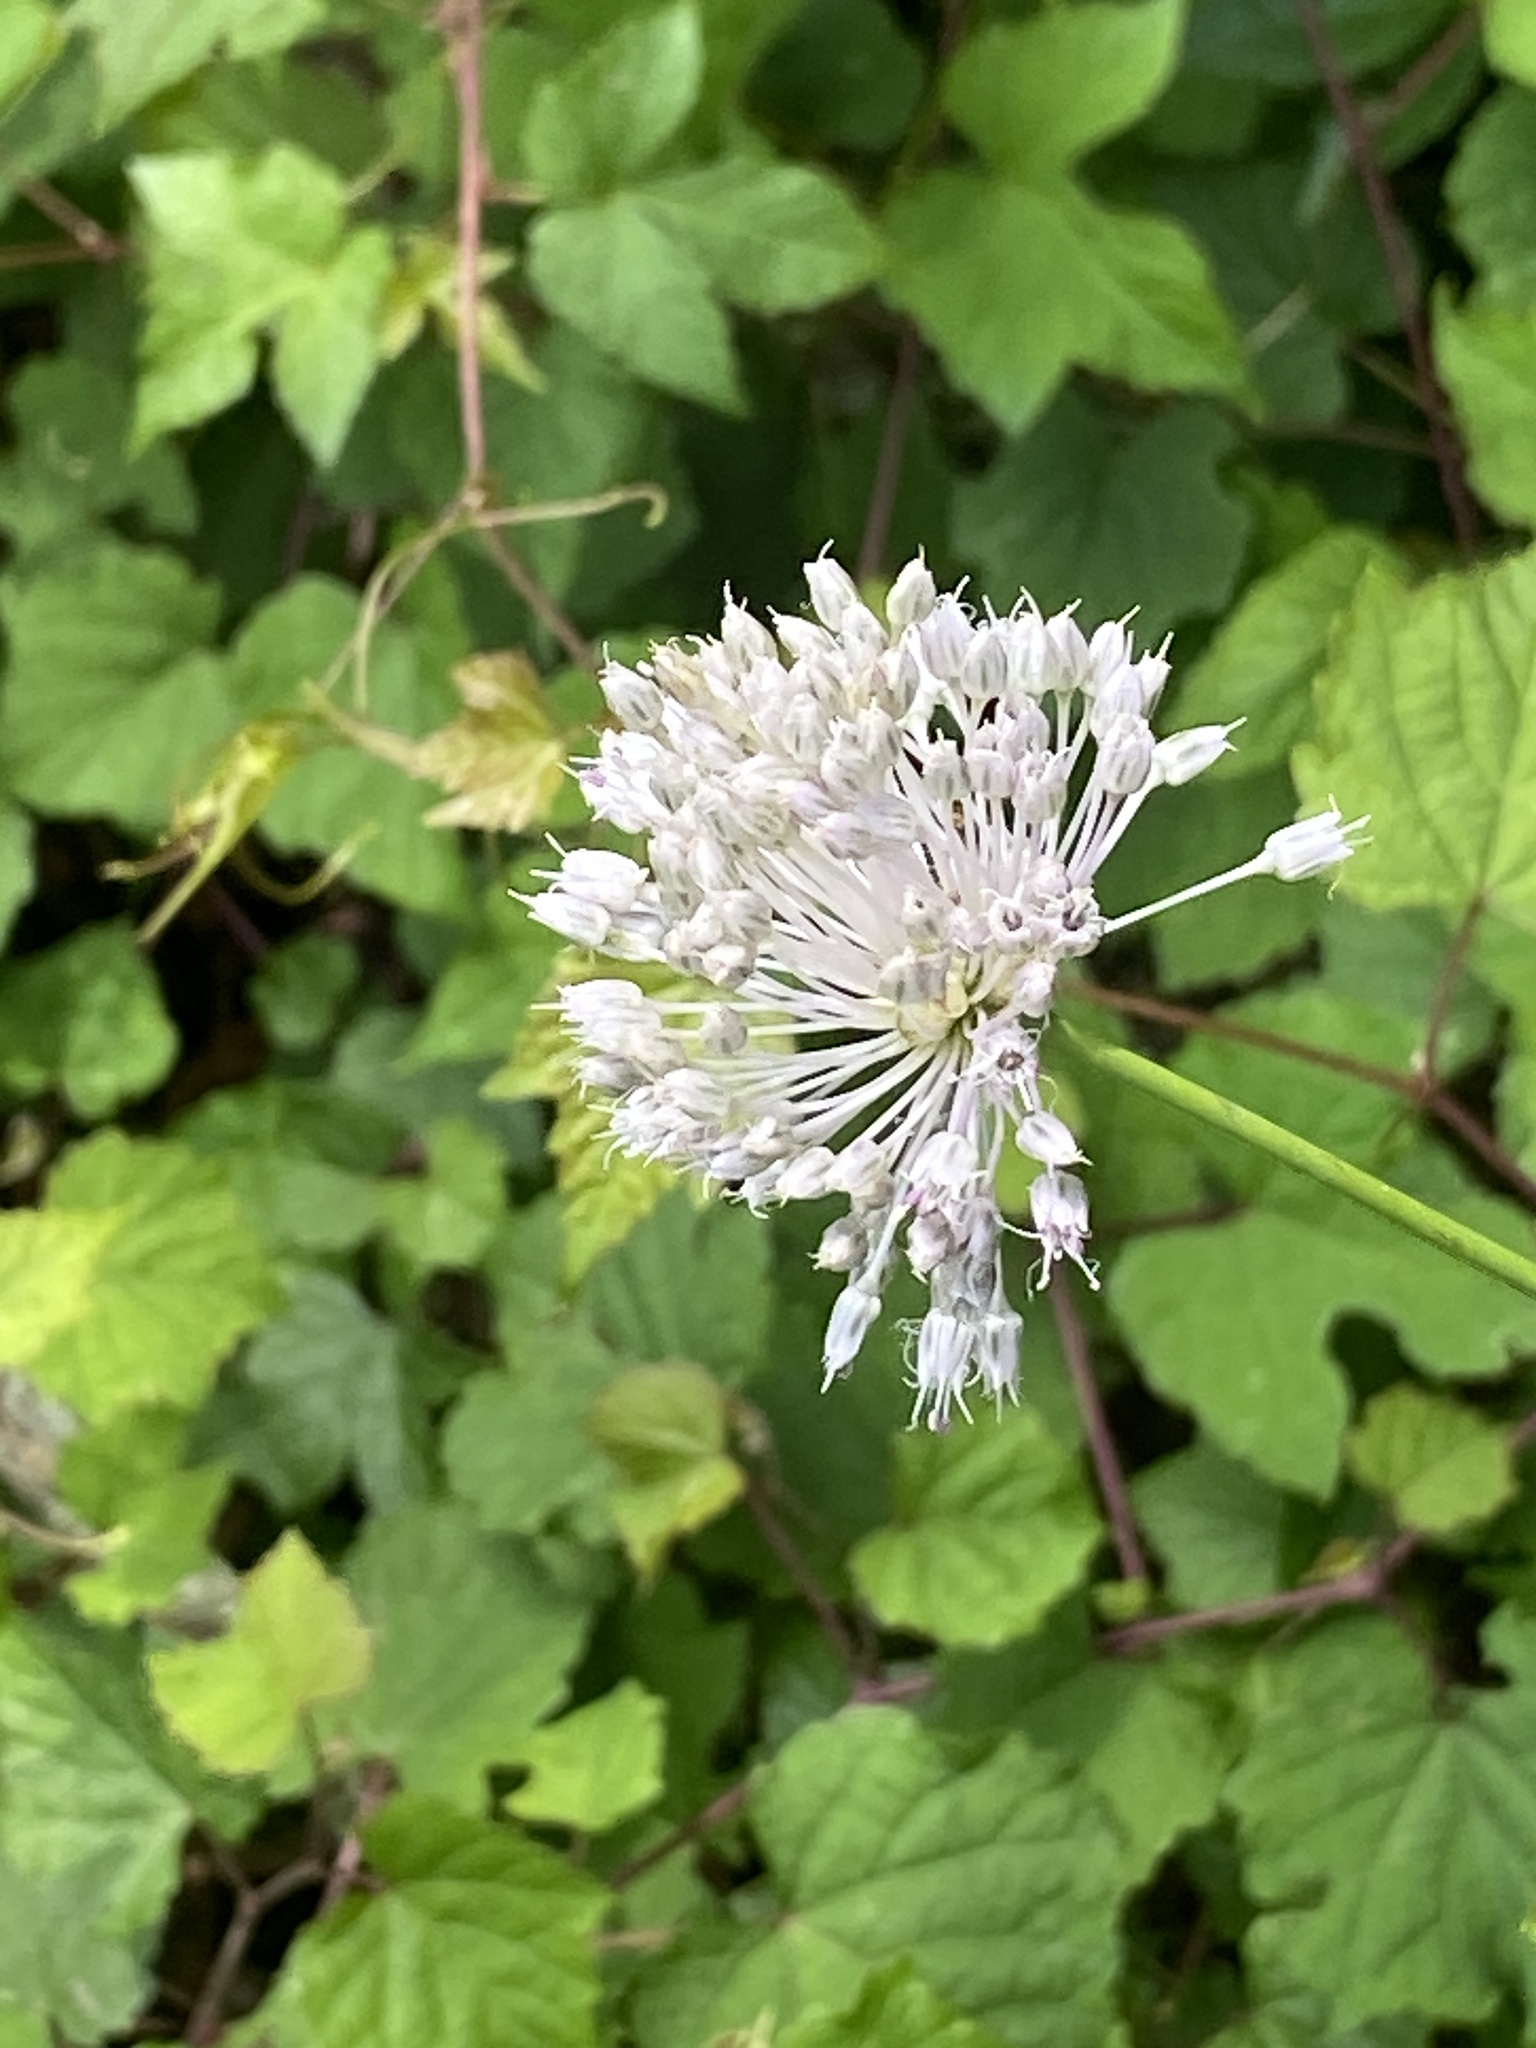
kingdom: Plantae
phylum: Tracheophyta
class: Liliopsida
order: Asparagales
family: Amaryllidaceae
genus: Allium
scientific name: Allium vineale
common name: Crow garlic
